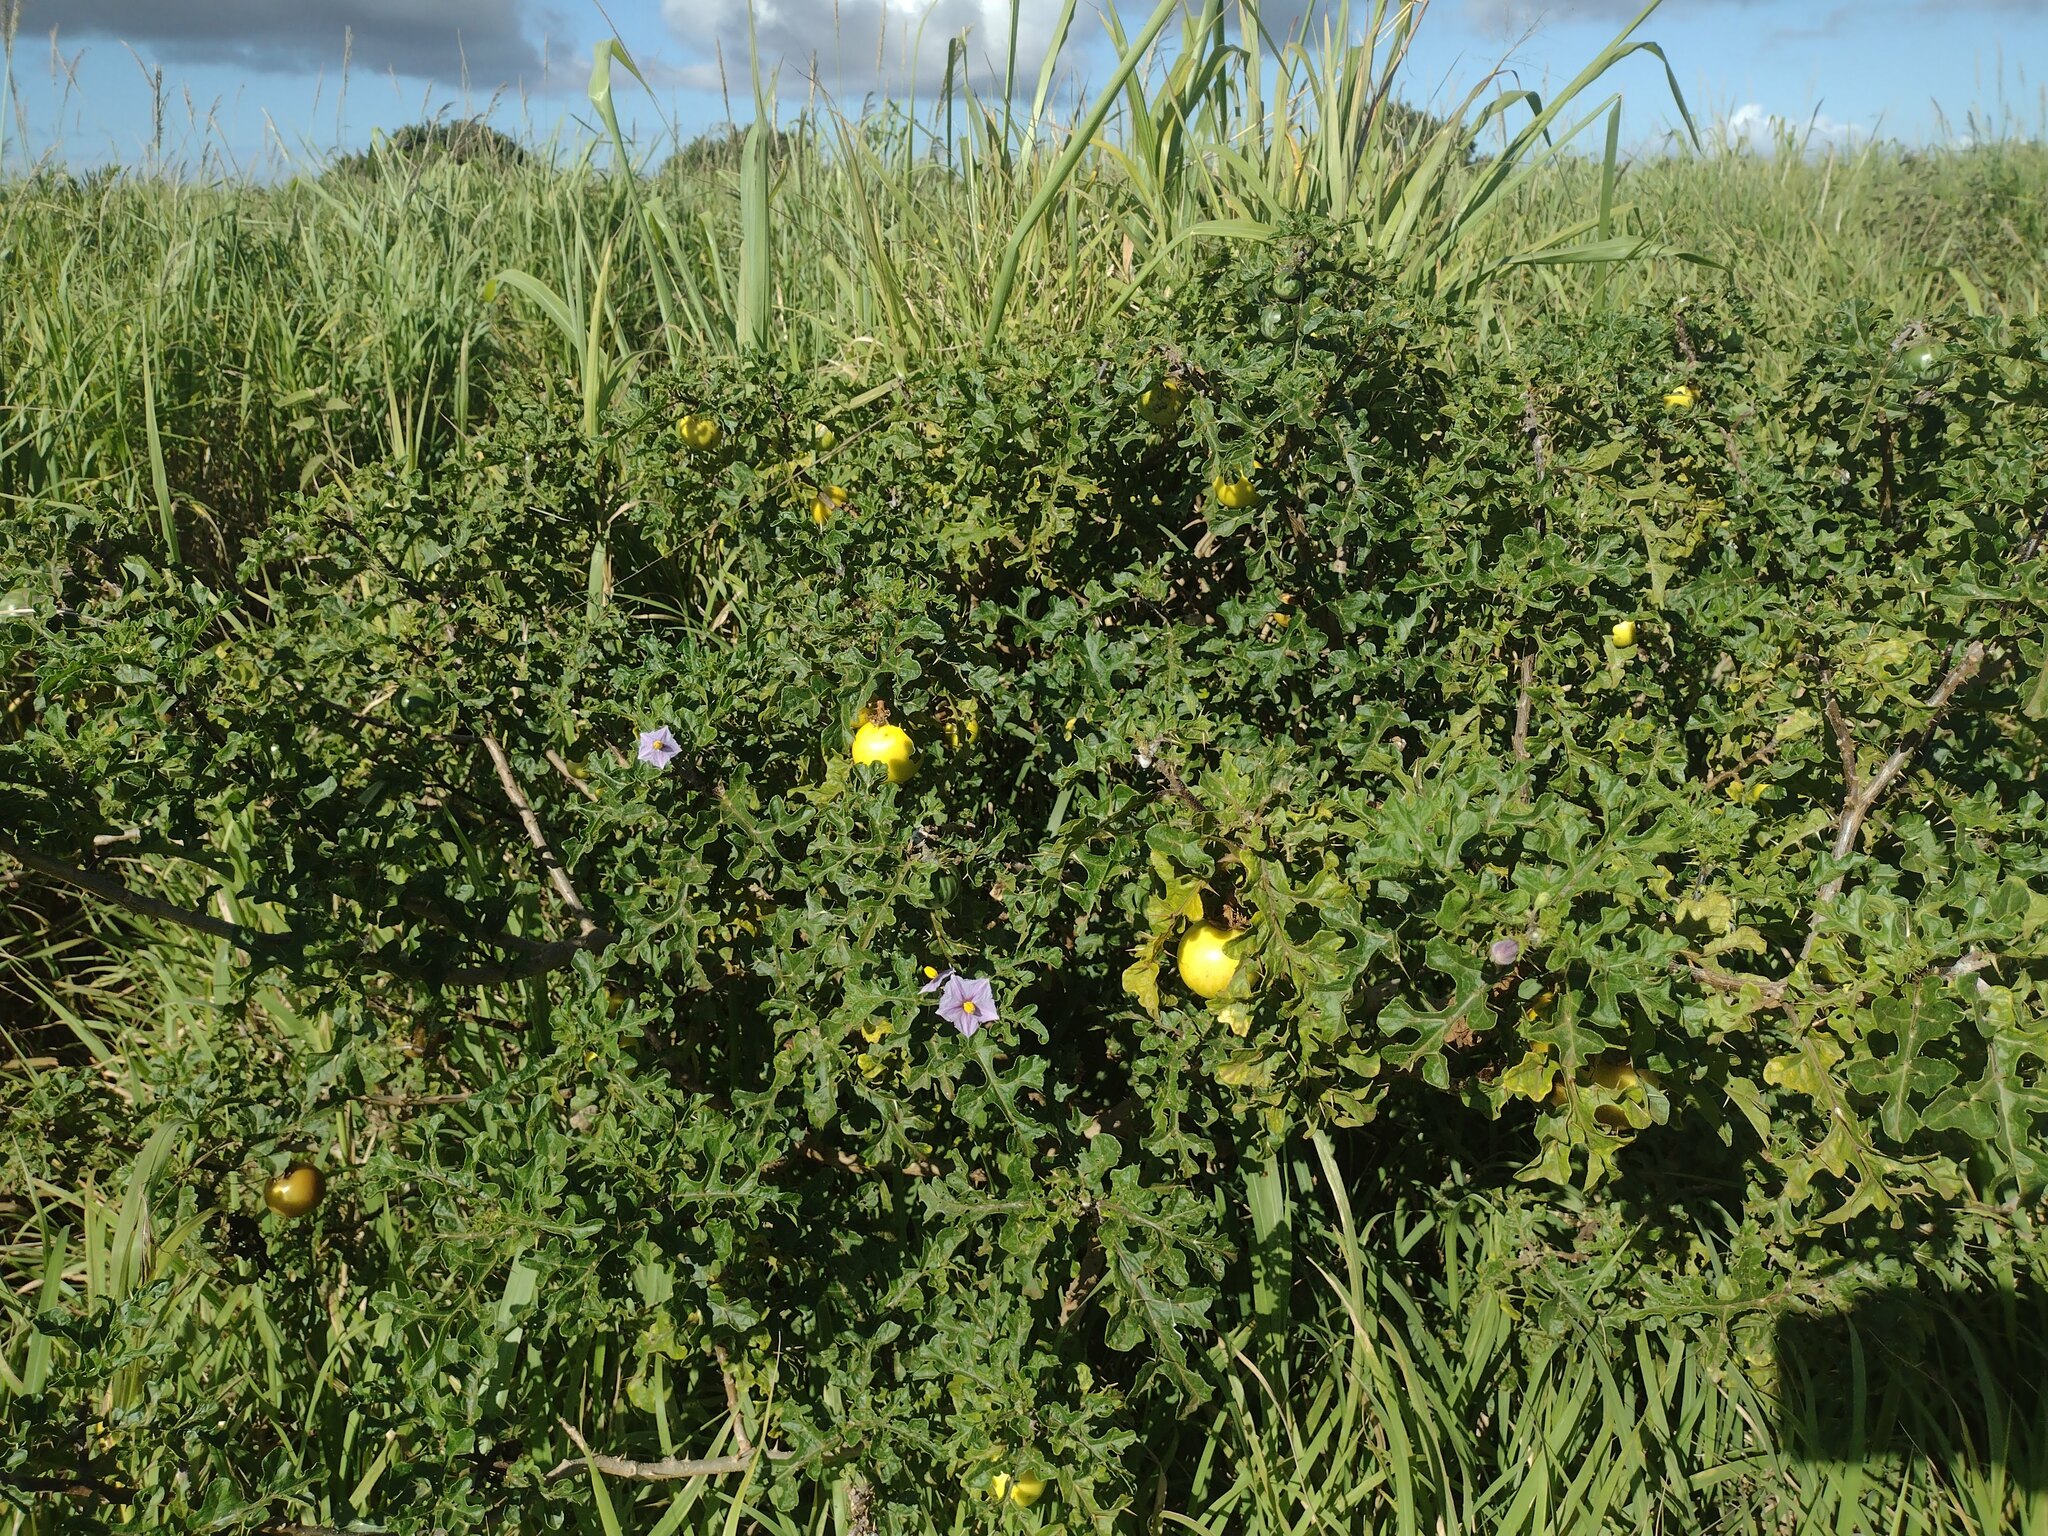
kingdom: Plantae
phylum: Tracheophyta
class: Magnoliopsida
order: Solanales
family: Solanaceae
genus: Solanum
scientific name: Solanum linnaeanum
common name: Nightshade
